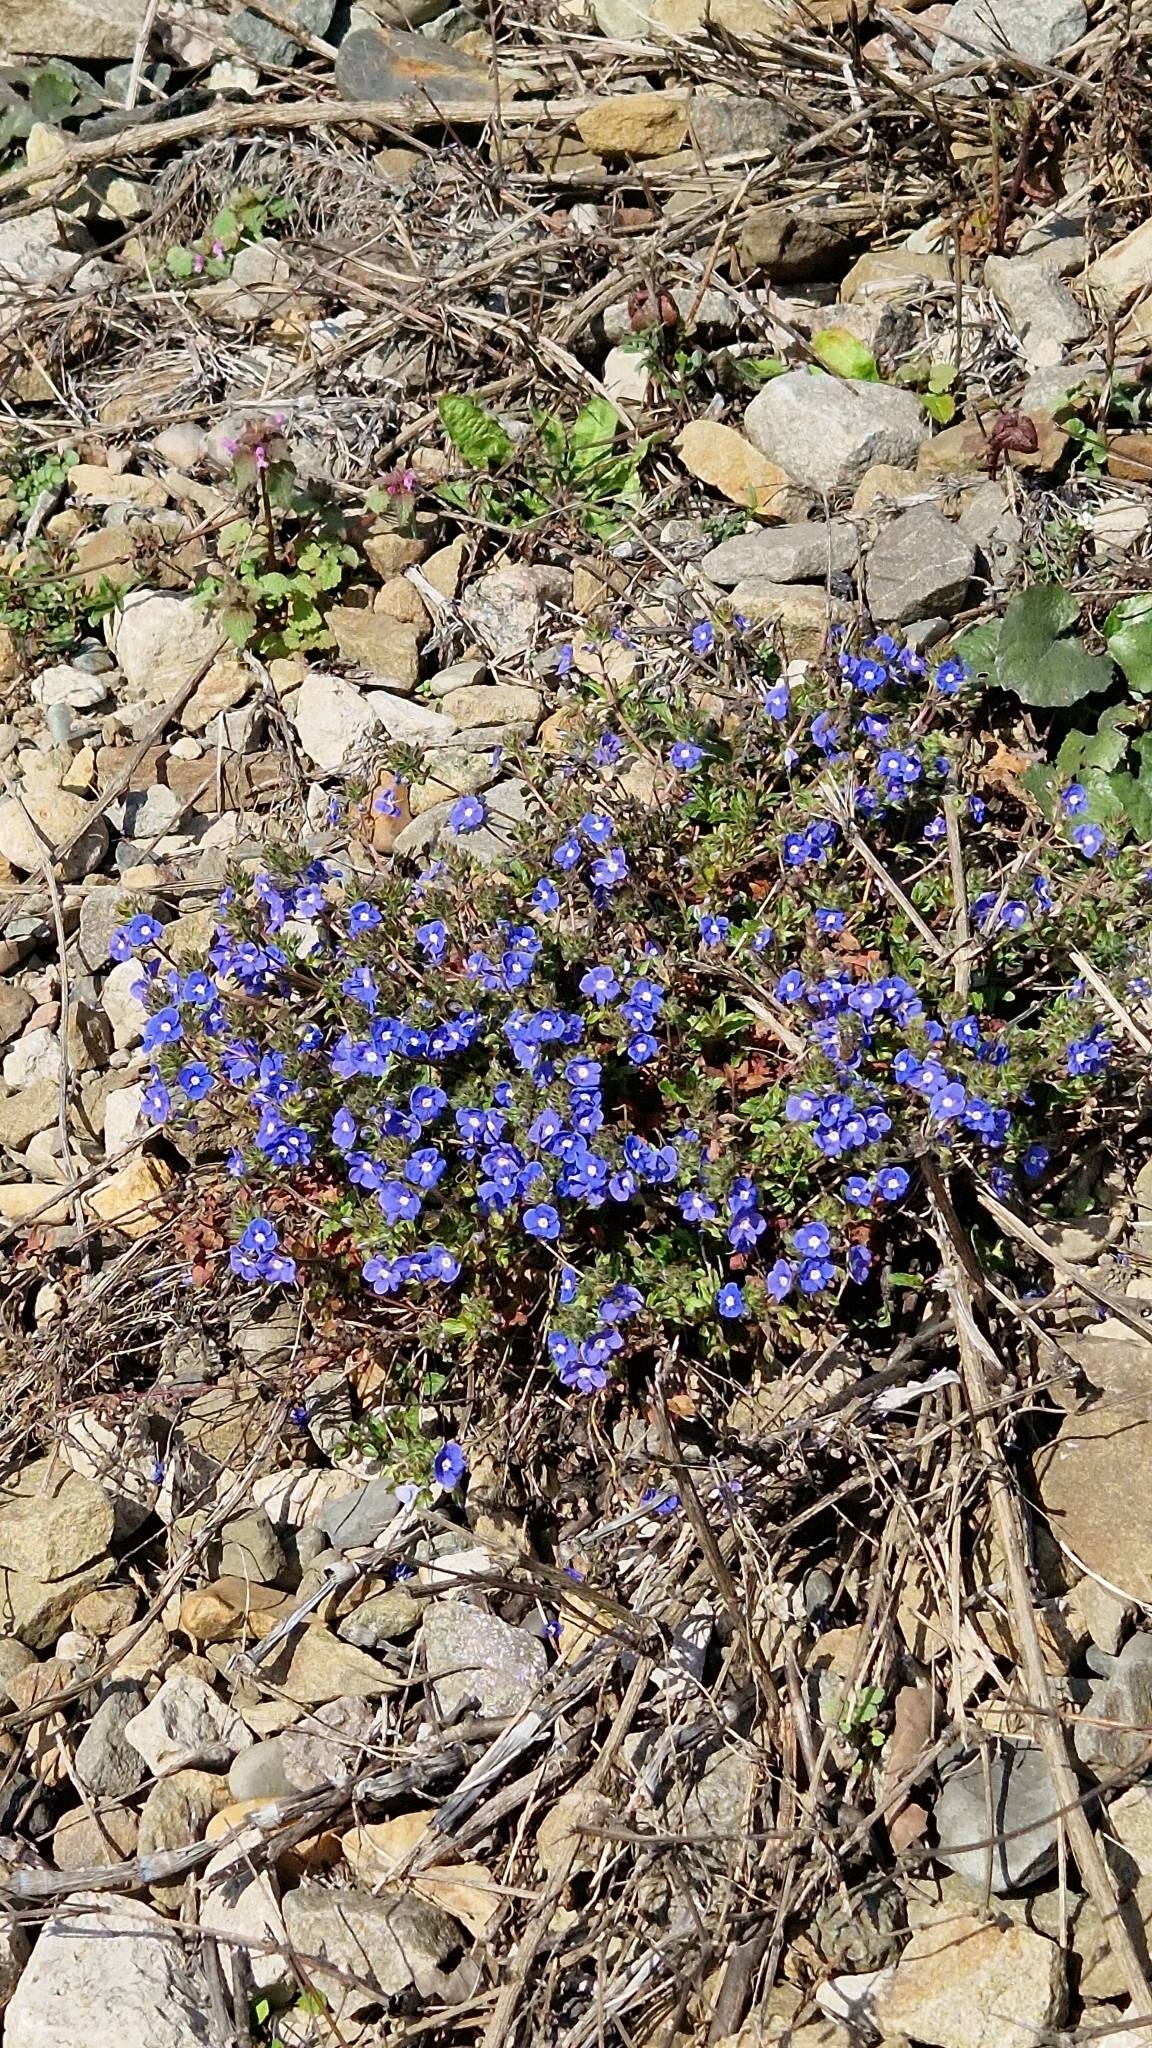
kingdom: Plantae
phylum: Tracheophyta
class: Magnoliopsida
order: Lamiales
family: Plantaginaceae
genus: Veronica
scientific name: Veronica
